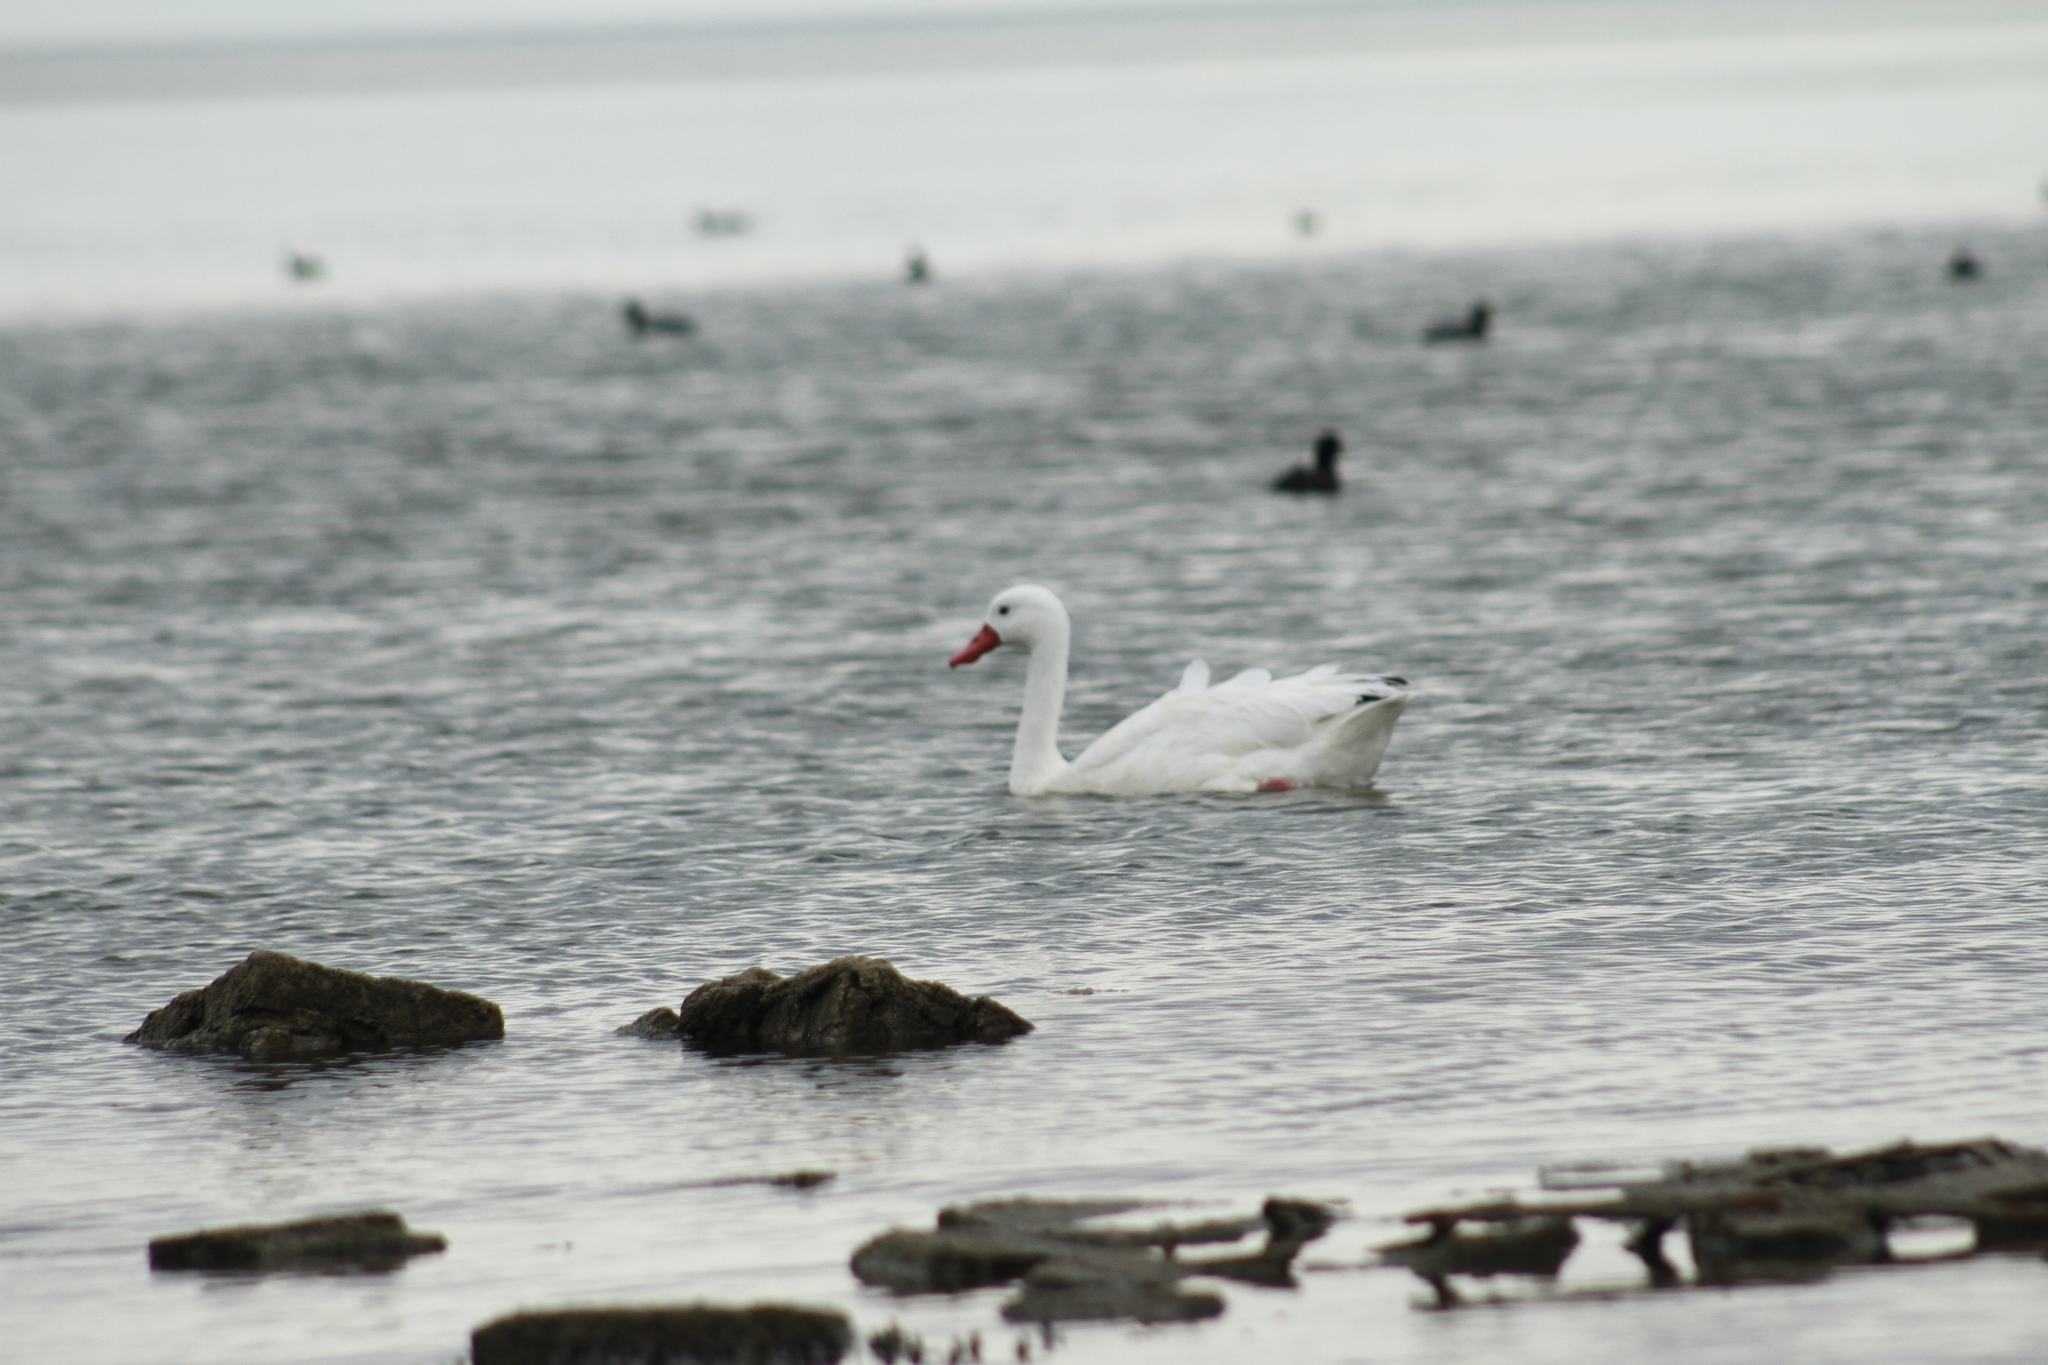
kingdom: Animalia
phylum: Chordata
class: Aves
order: Anseriformes
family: Anatidae
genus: Coscoroba
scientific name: Coscoroba coscoroba
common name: Coscoroba swan
